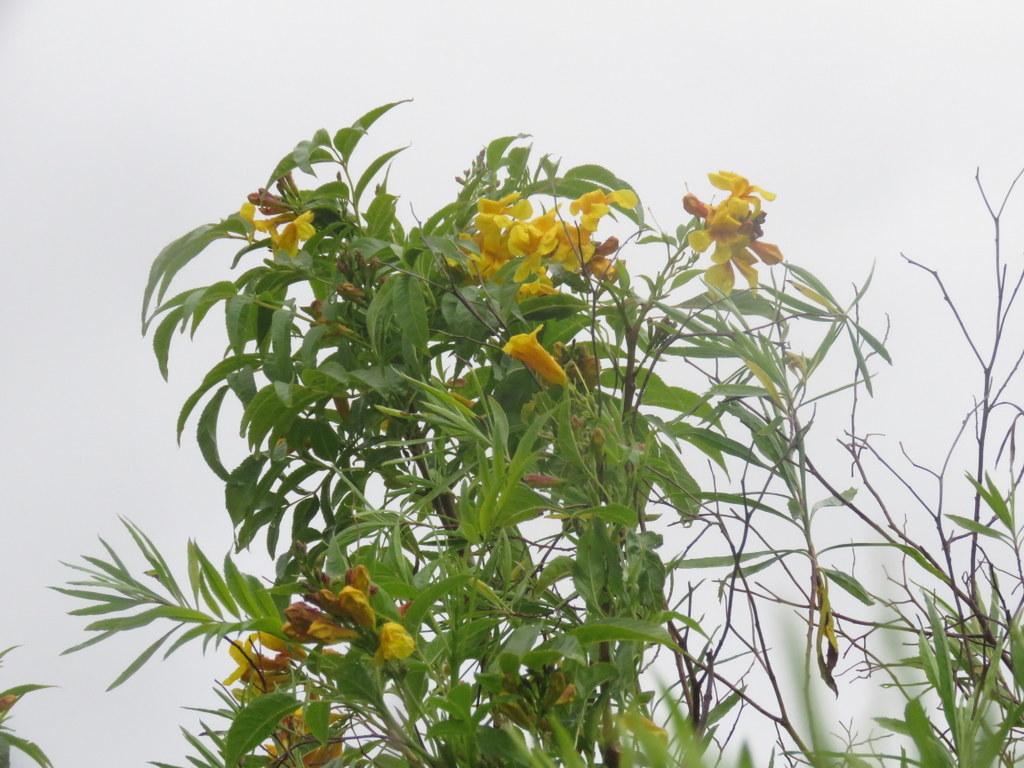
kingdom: Plantae
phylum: Tracheophyta
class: Magnoliopsida
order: Lamiales
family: Bignoniaceae
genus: Tecoma
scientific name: Tecoma stans
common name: Yellow trumpetbush
